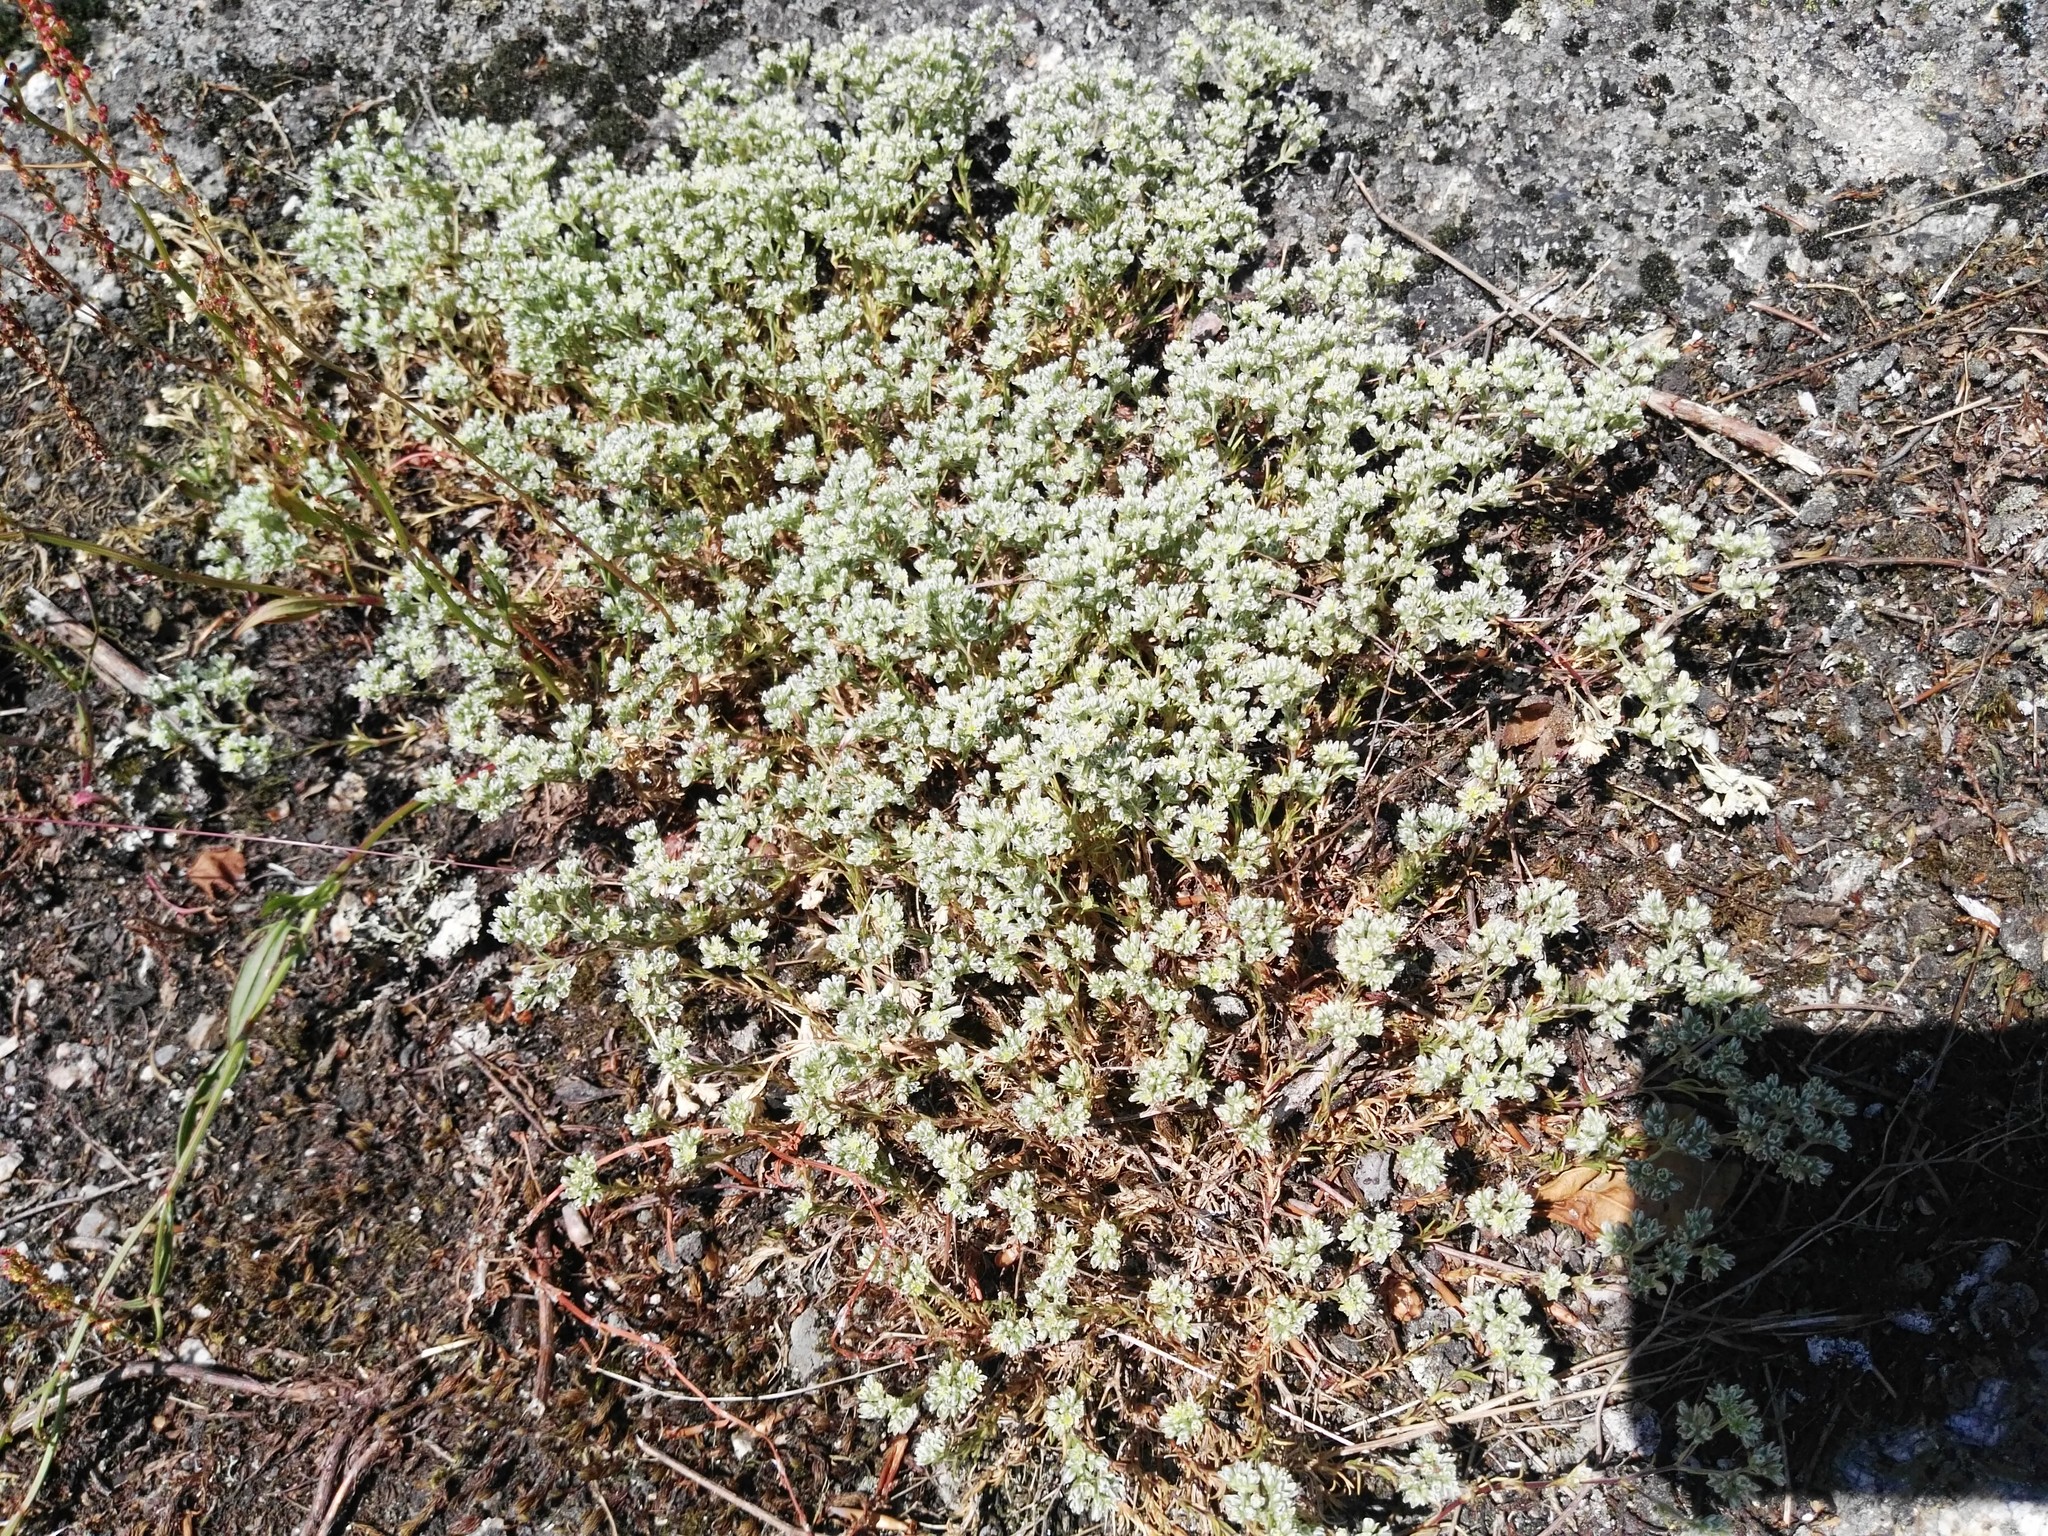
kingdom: Plantae
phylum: Tracheophyta
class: Magnoliopsida
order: Caryophyllales
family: Caryophyllaceae
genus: Scleranthus
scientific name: Scleranthus perennis
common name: Perennial knawel
